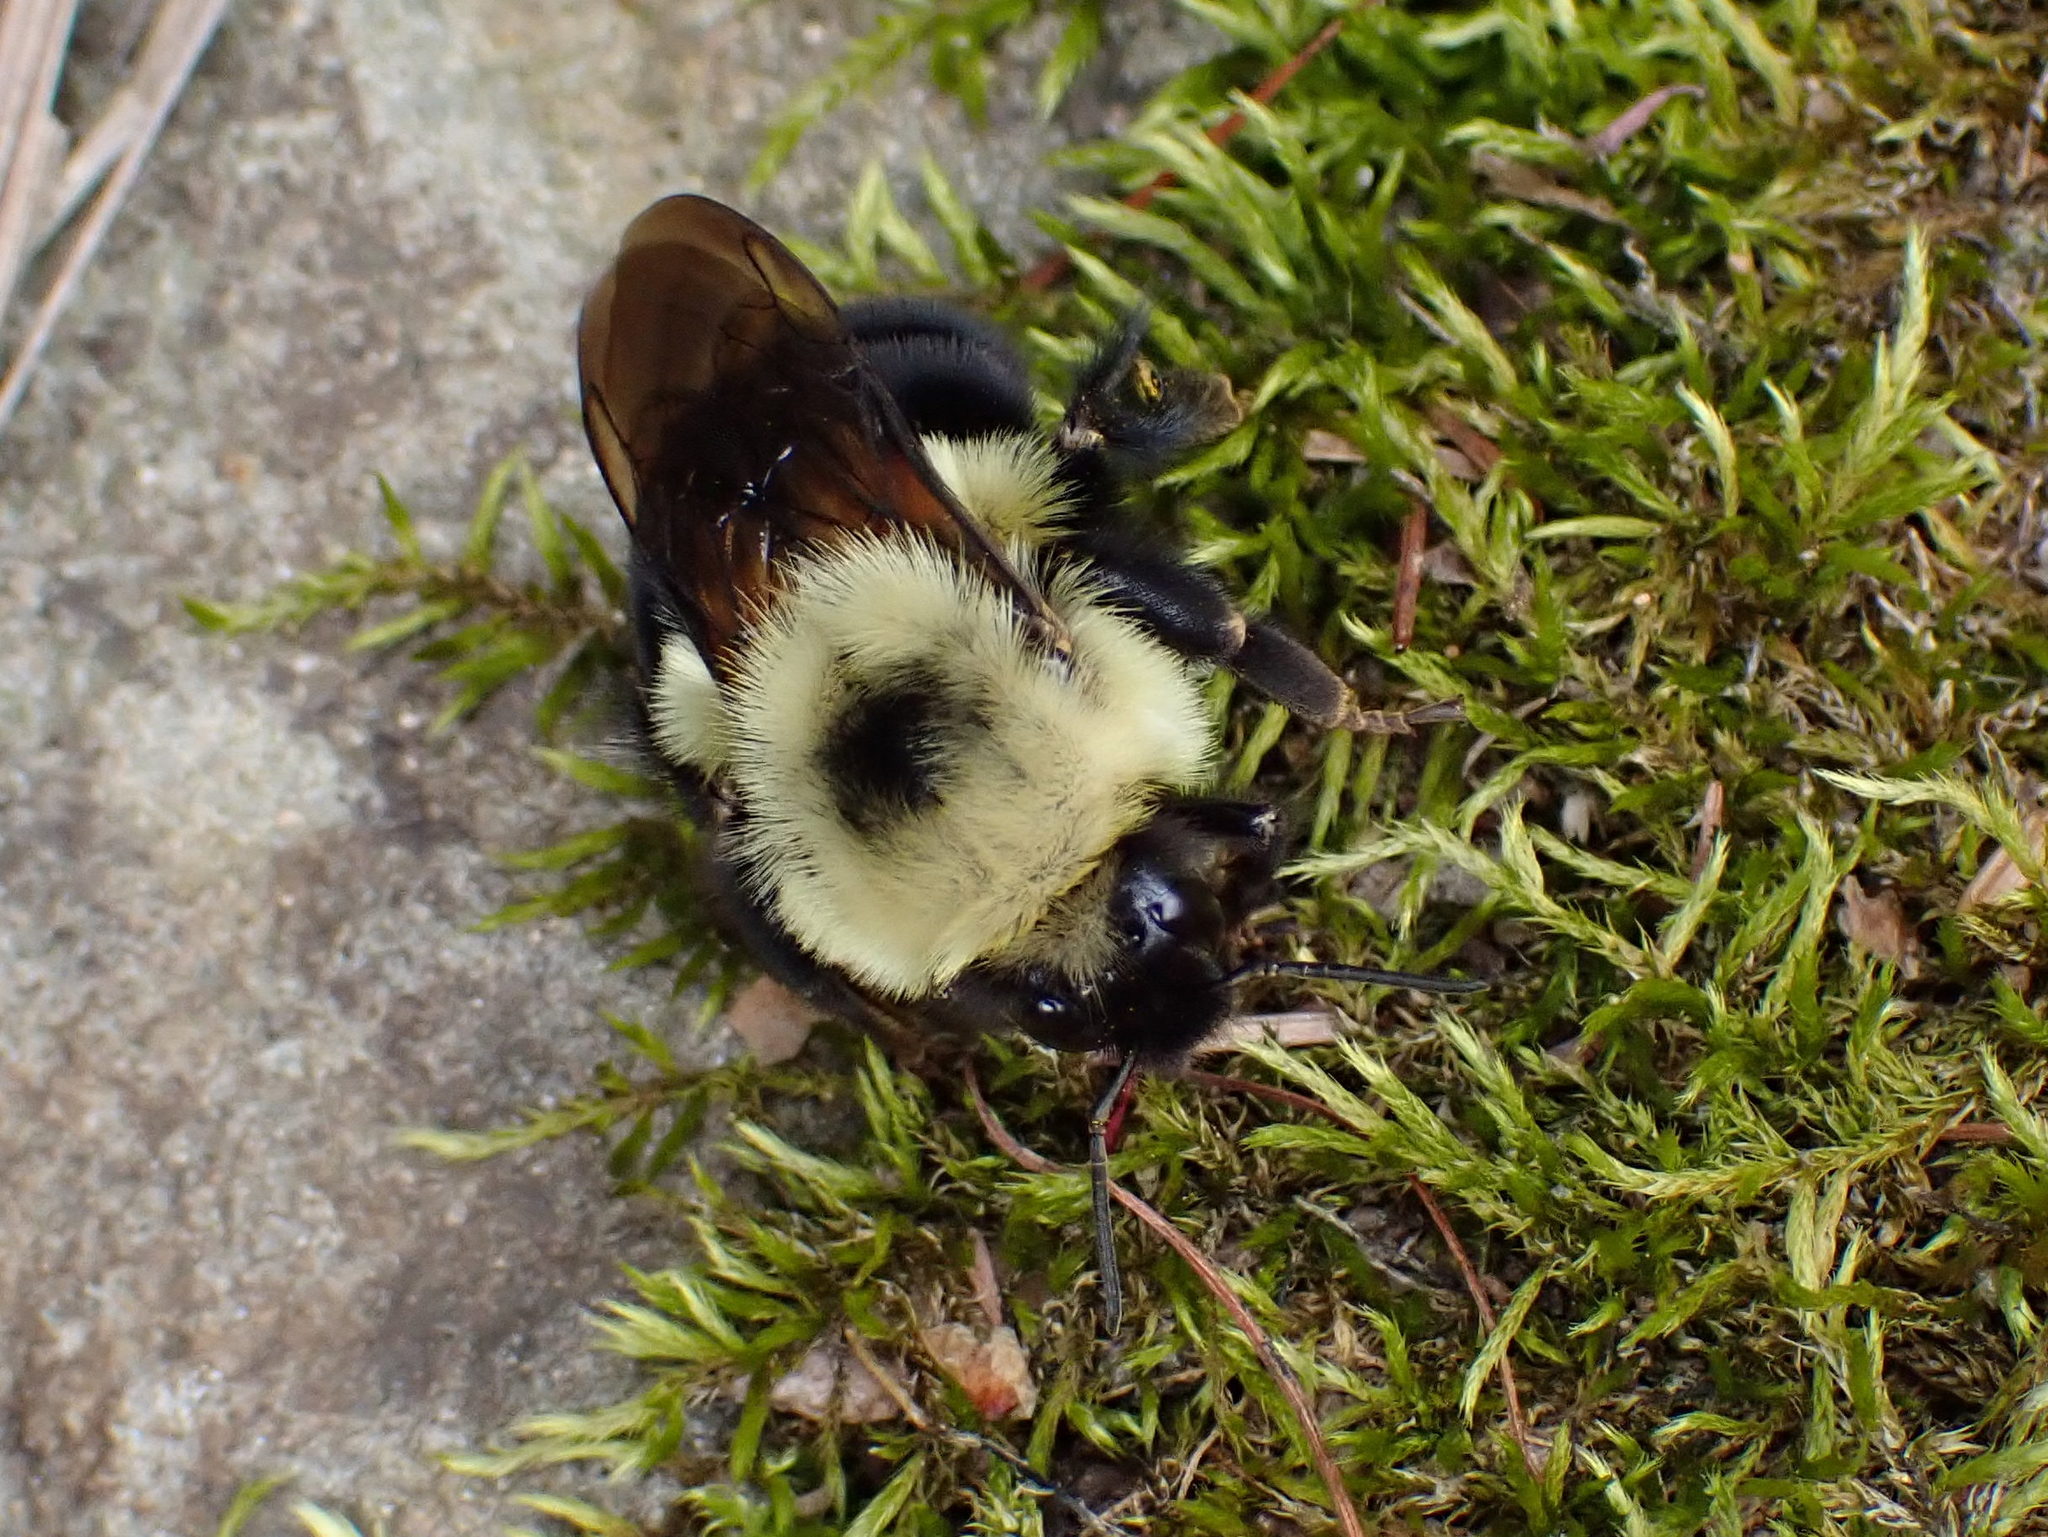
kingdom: Animalia
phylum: Arthropoda
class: Insecta
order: Hymenoptera
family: Apidae
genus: Bombus
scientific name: Bombus bimaculatus
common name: Two-spotted bumble bee
